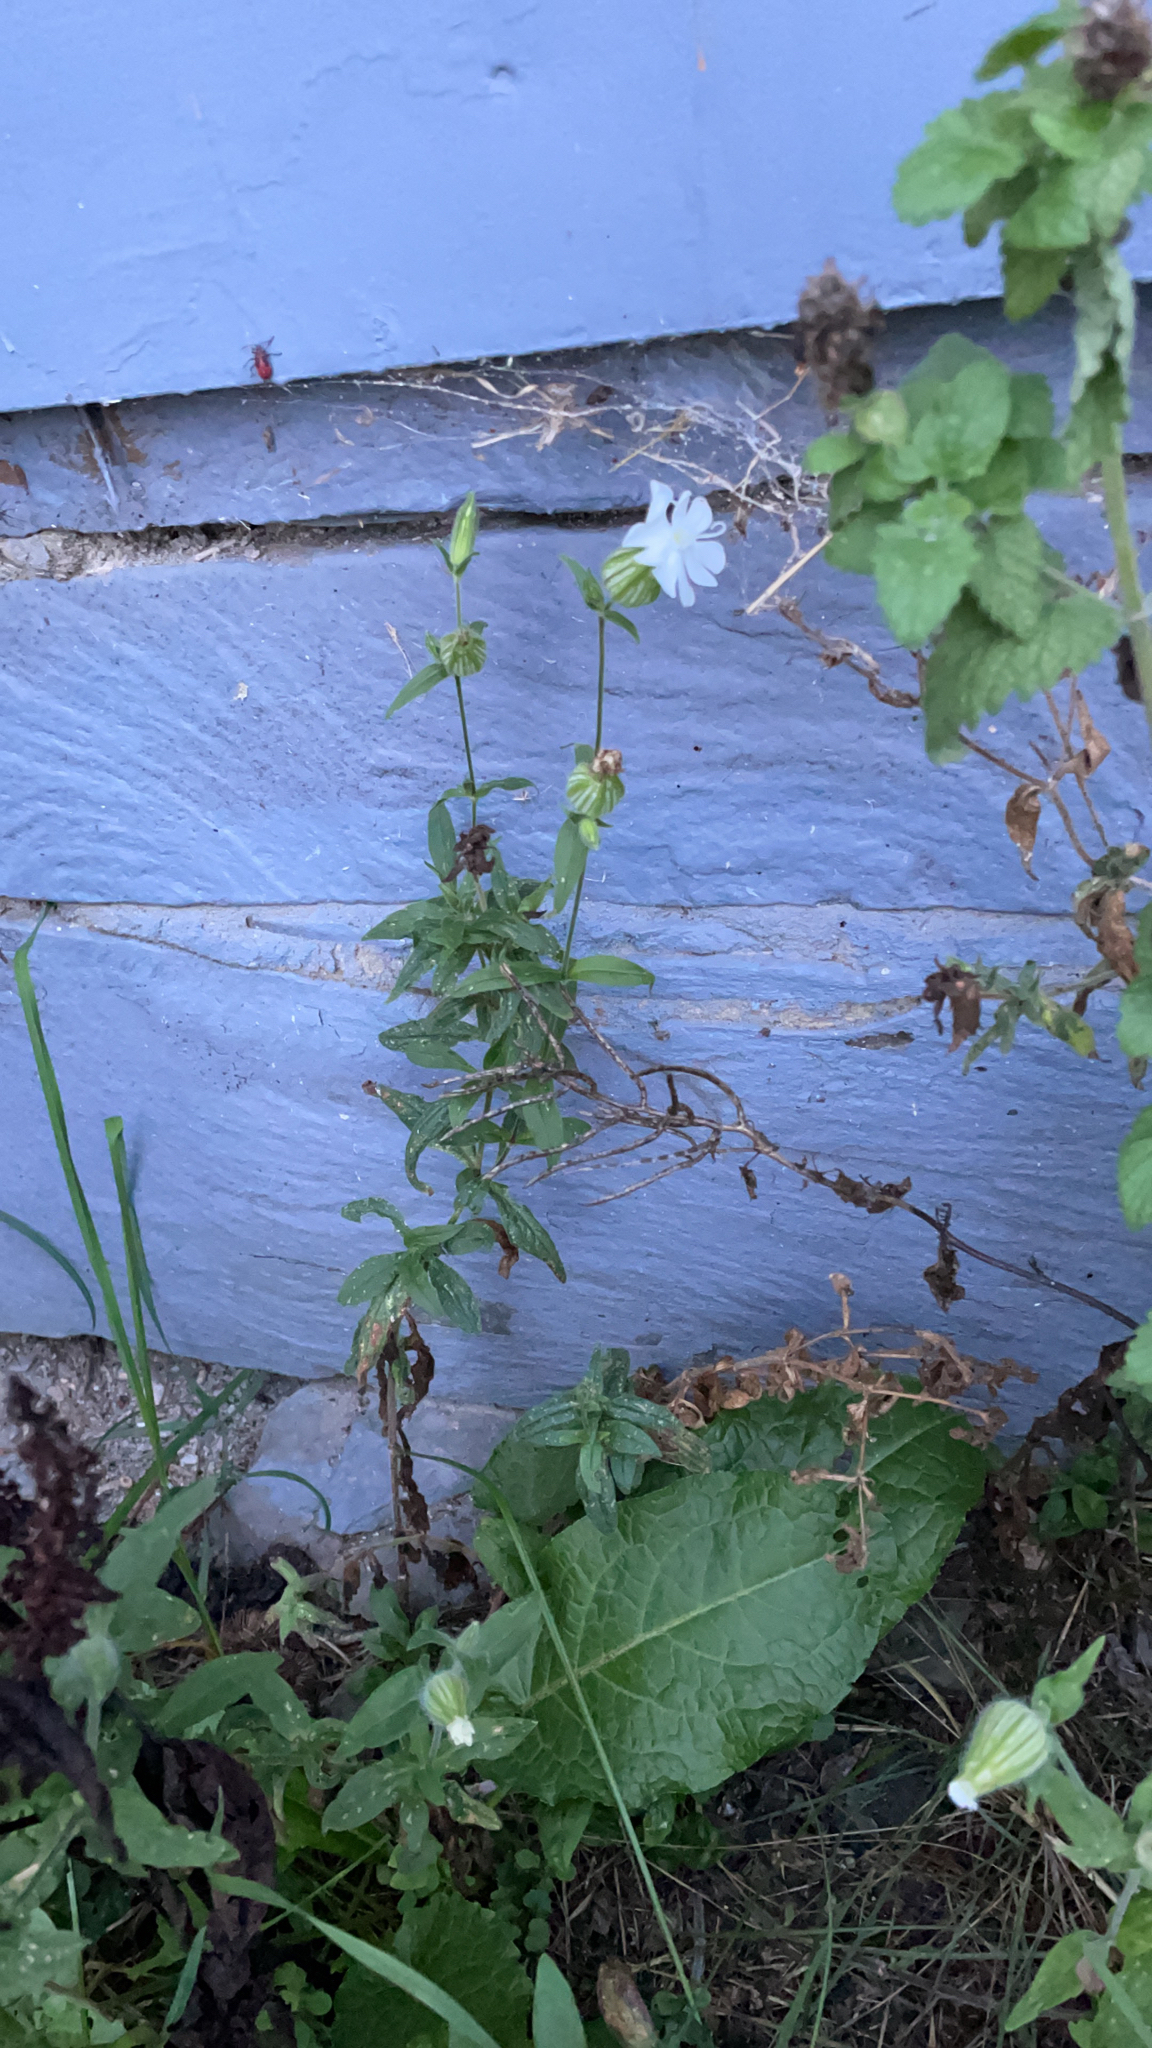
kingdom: Plantae
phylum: Tracheophyta
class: Magnoliopsida
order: Caryophyllales
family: Caryophyllaceae
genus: Silene
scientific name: Silene latifolia
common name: White campion
